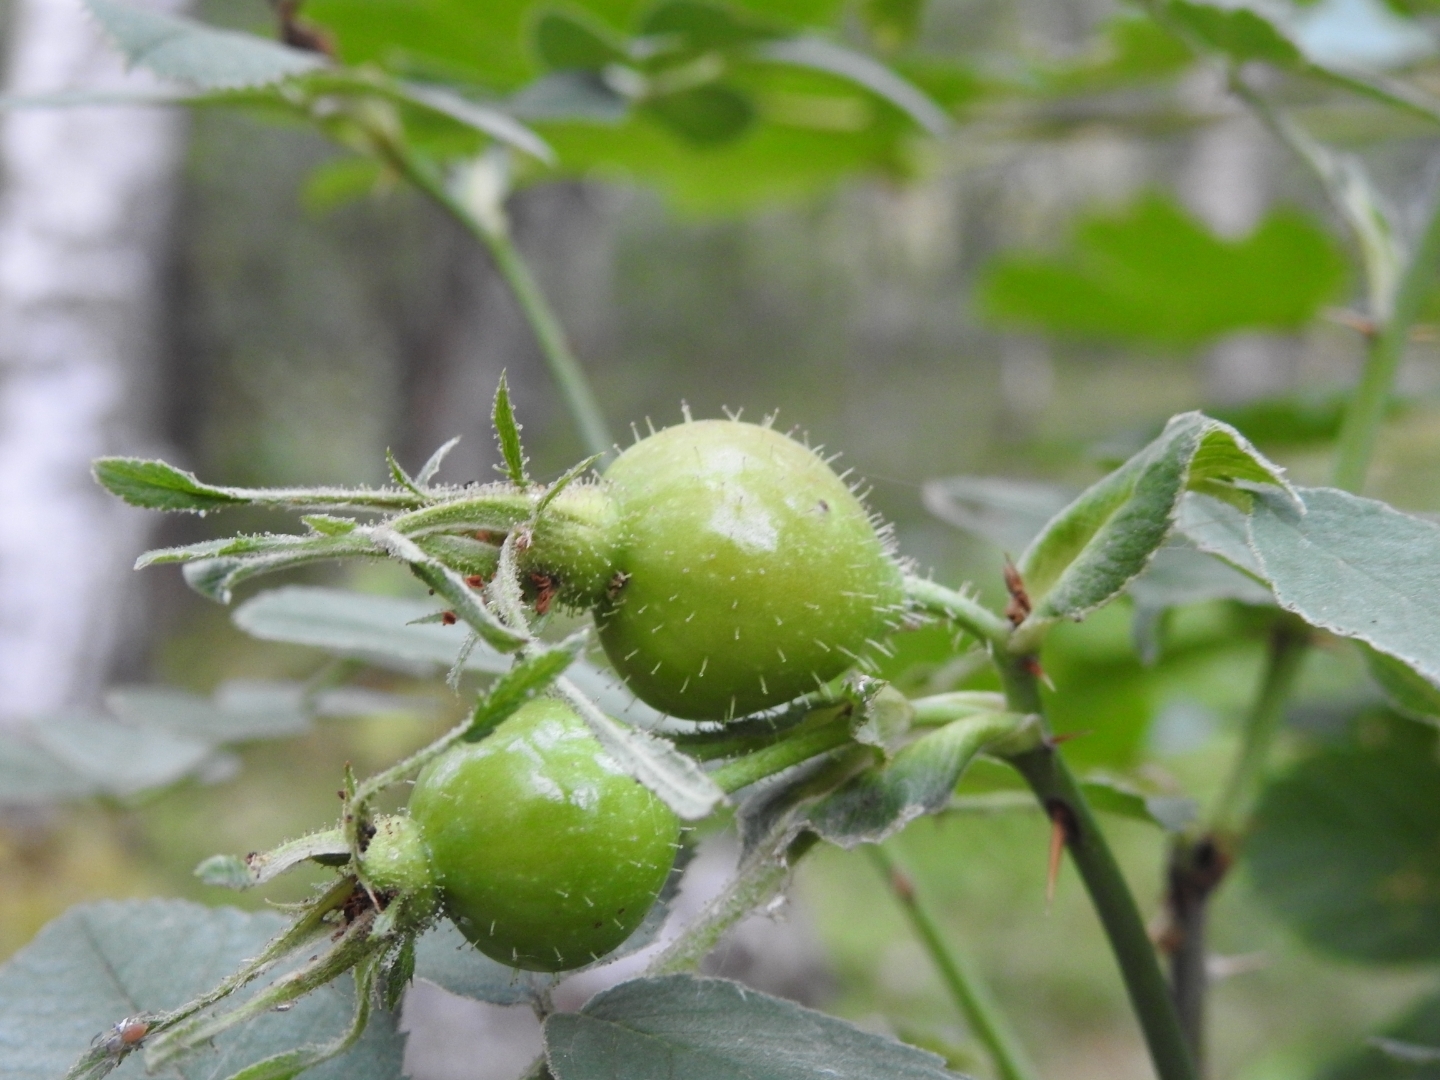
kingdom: Plantae
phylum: Tracheophyta
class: Magnoliopsida
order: Rosales
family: Rosaceae
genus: Rosa
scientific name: Rosa villosa
